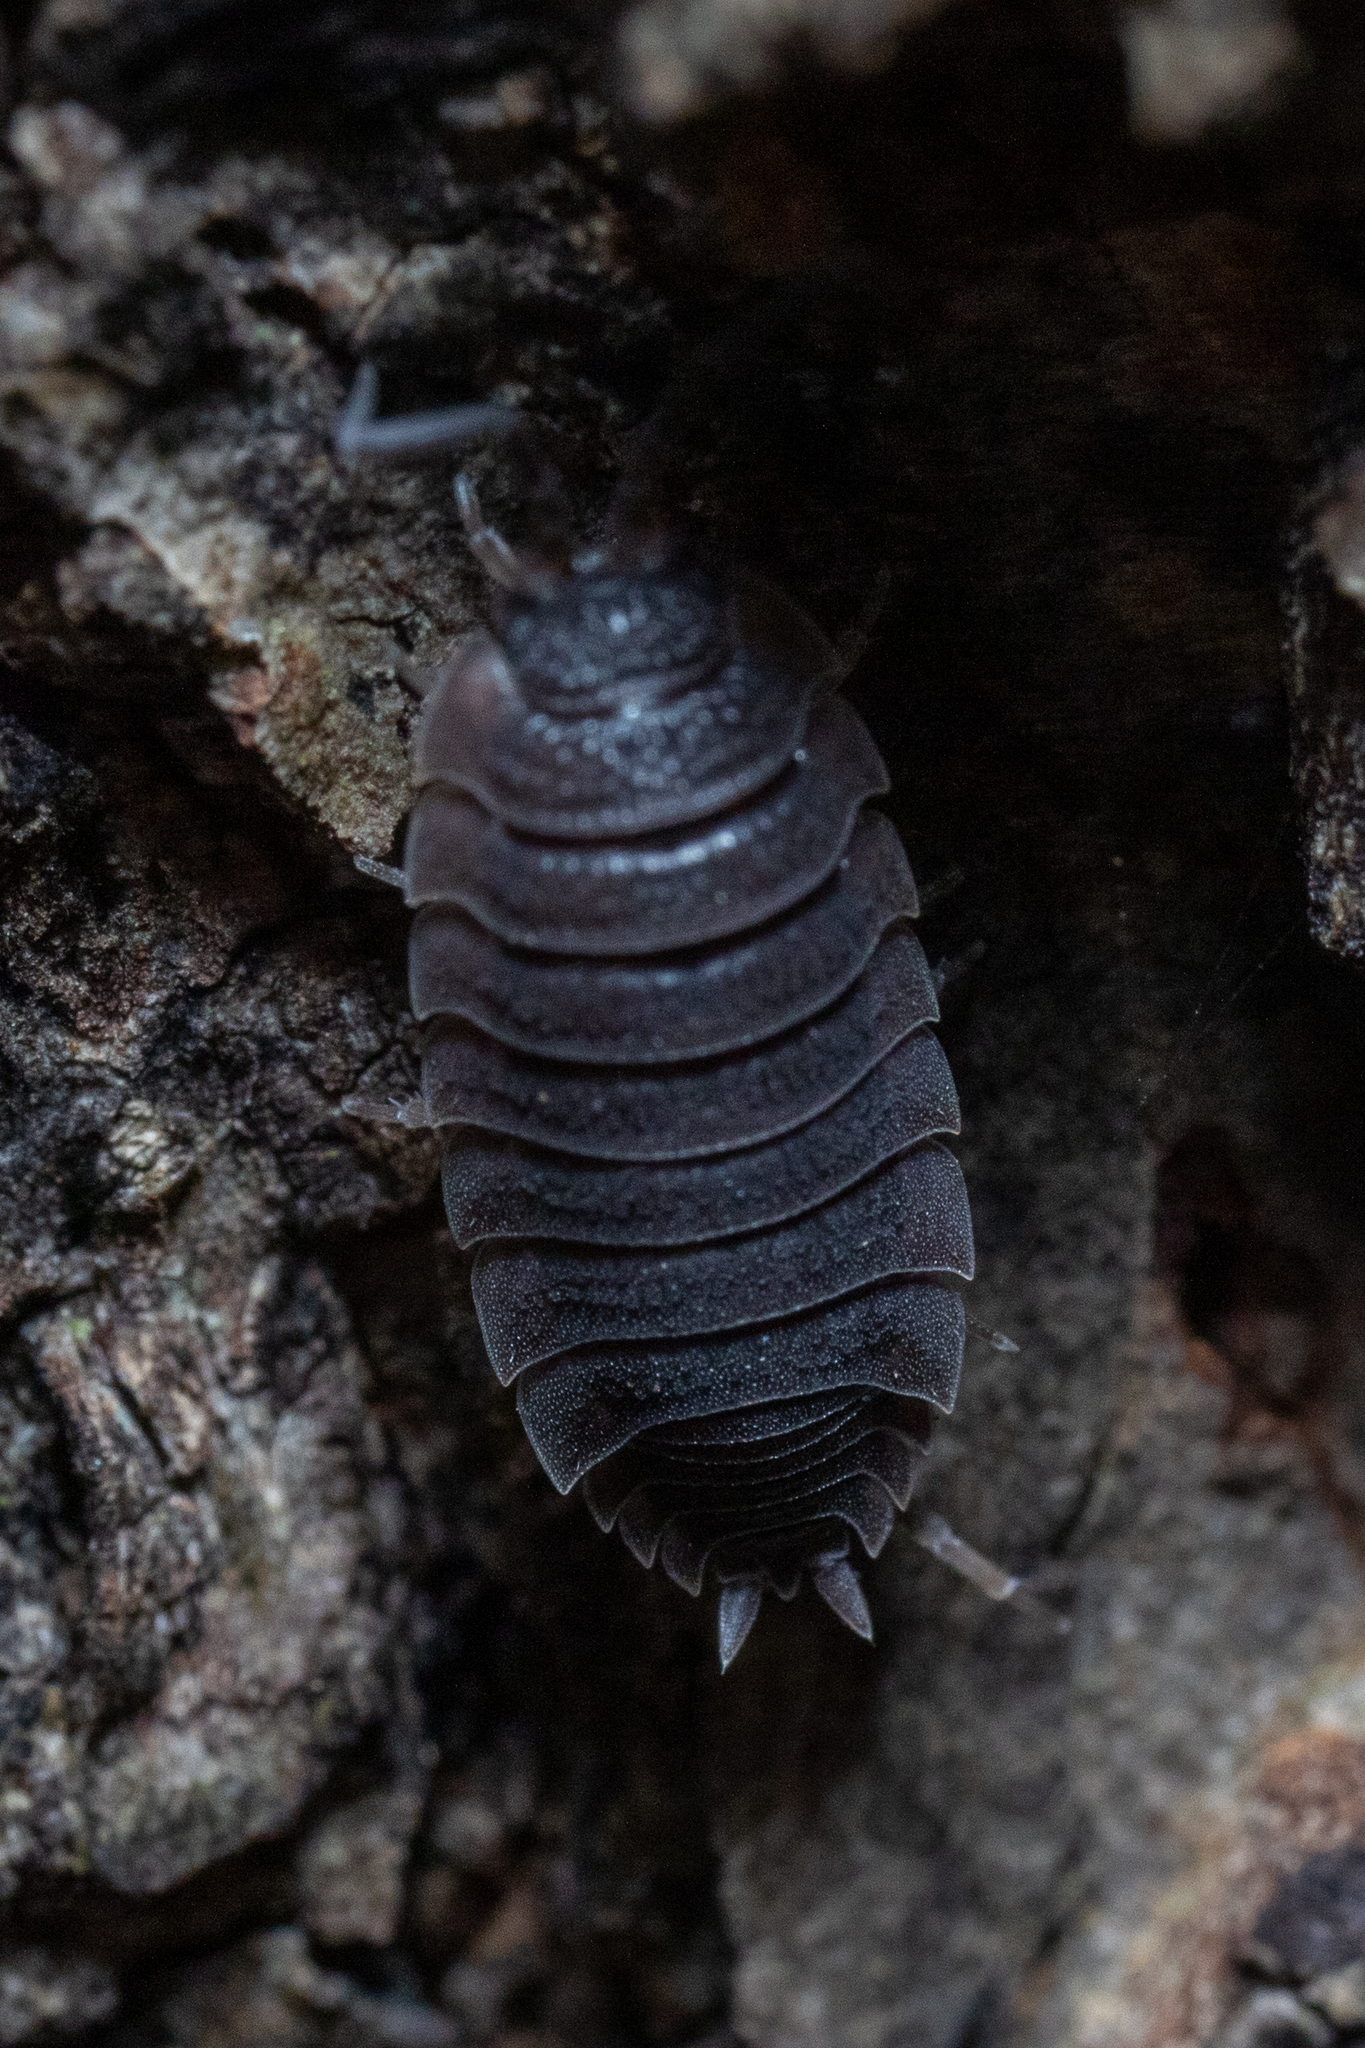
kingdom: Animalia
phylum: Arthropoda
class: Malacostraca
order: Isopoda
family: Porcellionidae
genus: Porcellio
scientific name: Porcellio scaber
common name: Common rough woodlouse
